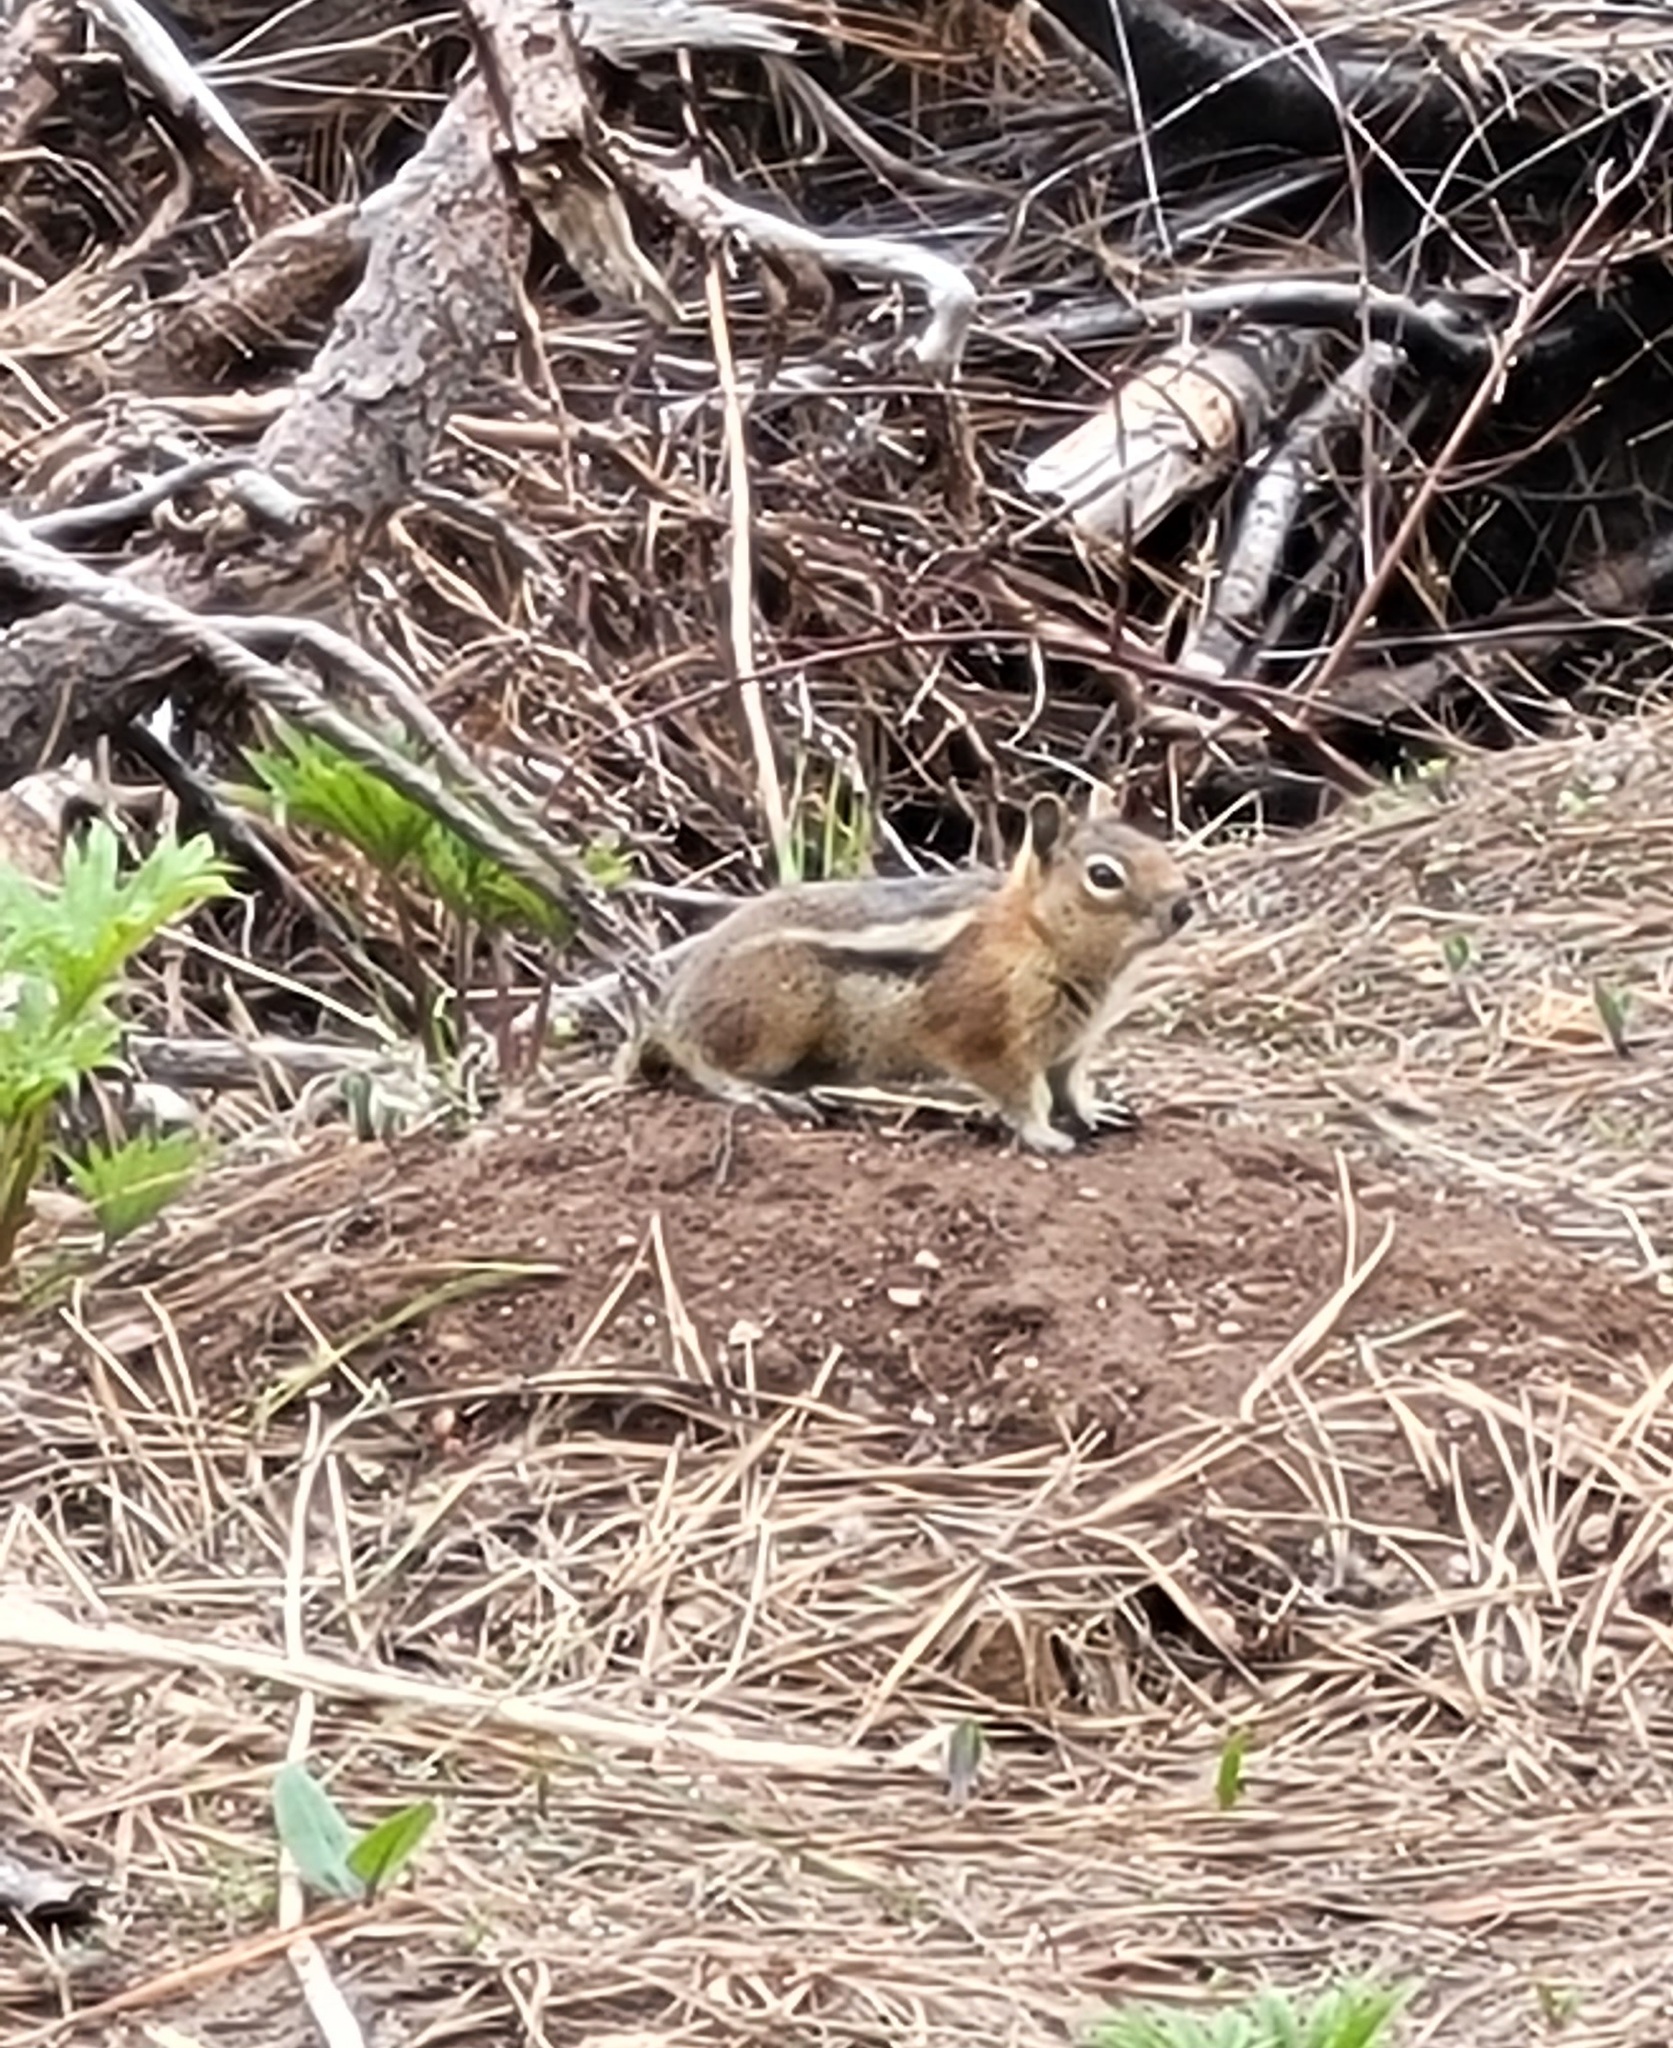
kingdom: Animalia
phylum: Chordata
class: Mammalia
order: Rodentia
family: Sciuridae
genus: Callospermophilus
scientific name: Callospermophilus saturatus
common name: Cascade golden-mantled ground squirrel
